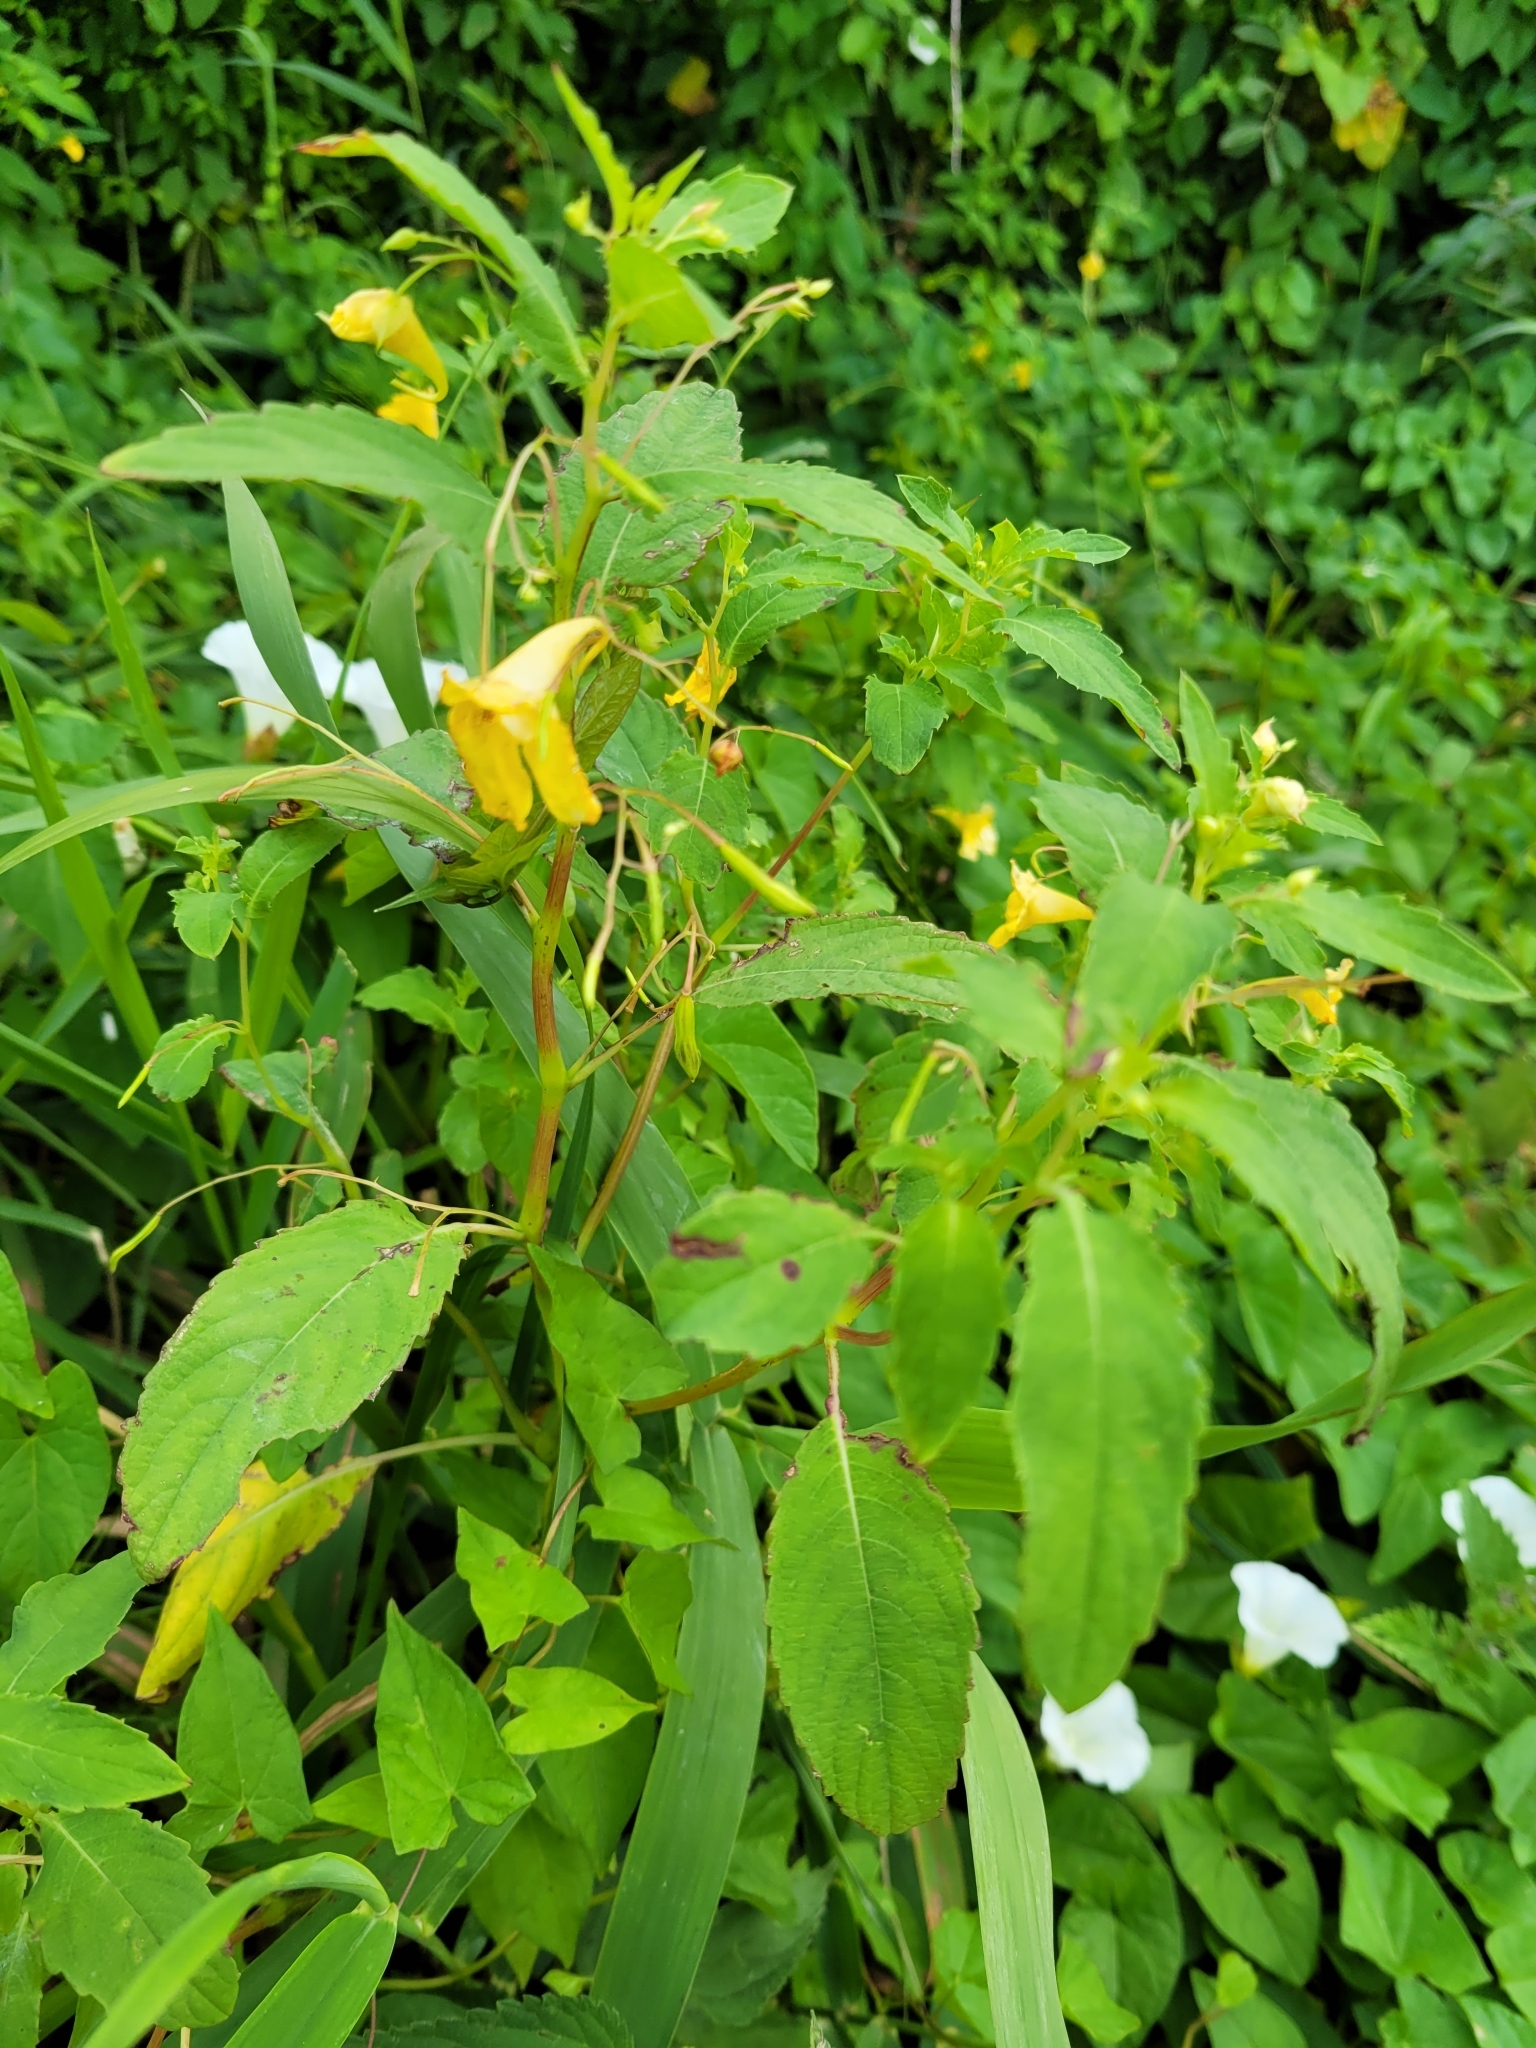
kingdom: Plantae
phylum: Tracheophyta
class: Magnoliopsida
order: Ericales
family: Balsaminaceae
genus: Impatiens
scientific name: Impatiens noli-tangere
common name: Touch-me-not balsam
